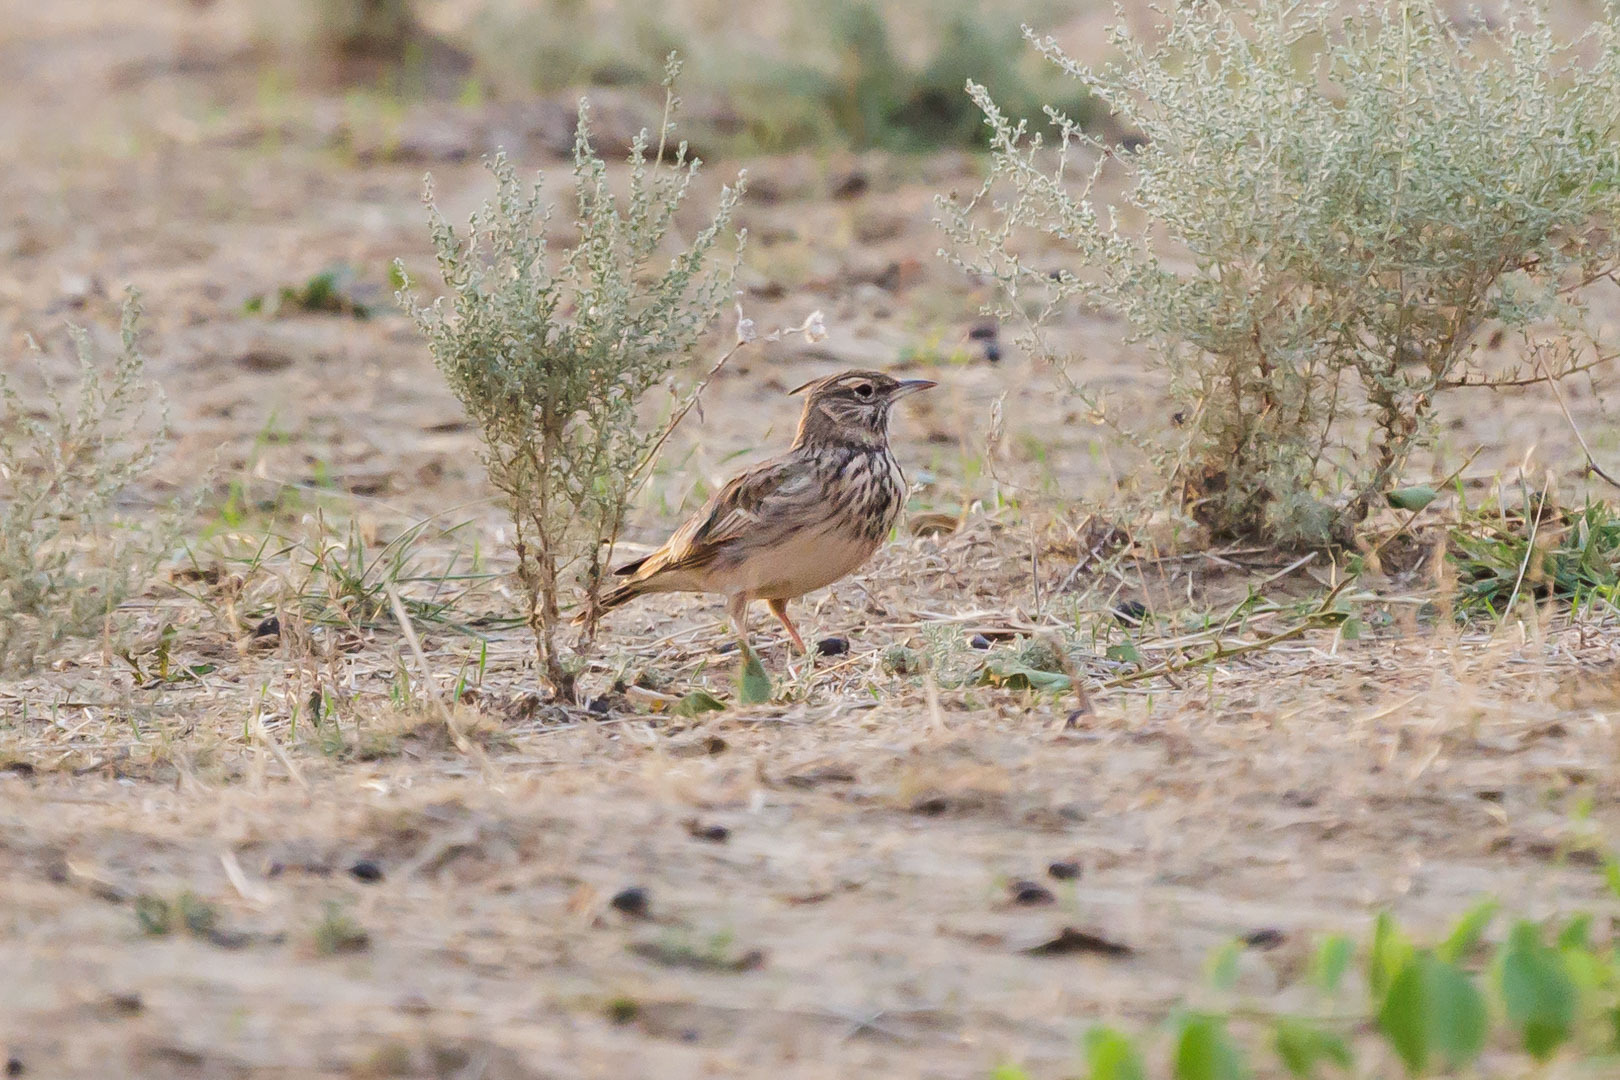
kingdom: Animalia
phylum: Chordata
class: Aves
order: Passeriformes
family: Alaudidae
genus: Galerida
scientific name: Galerida cristata
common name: Crested lark
